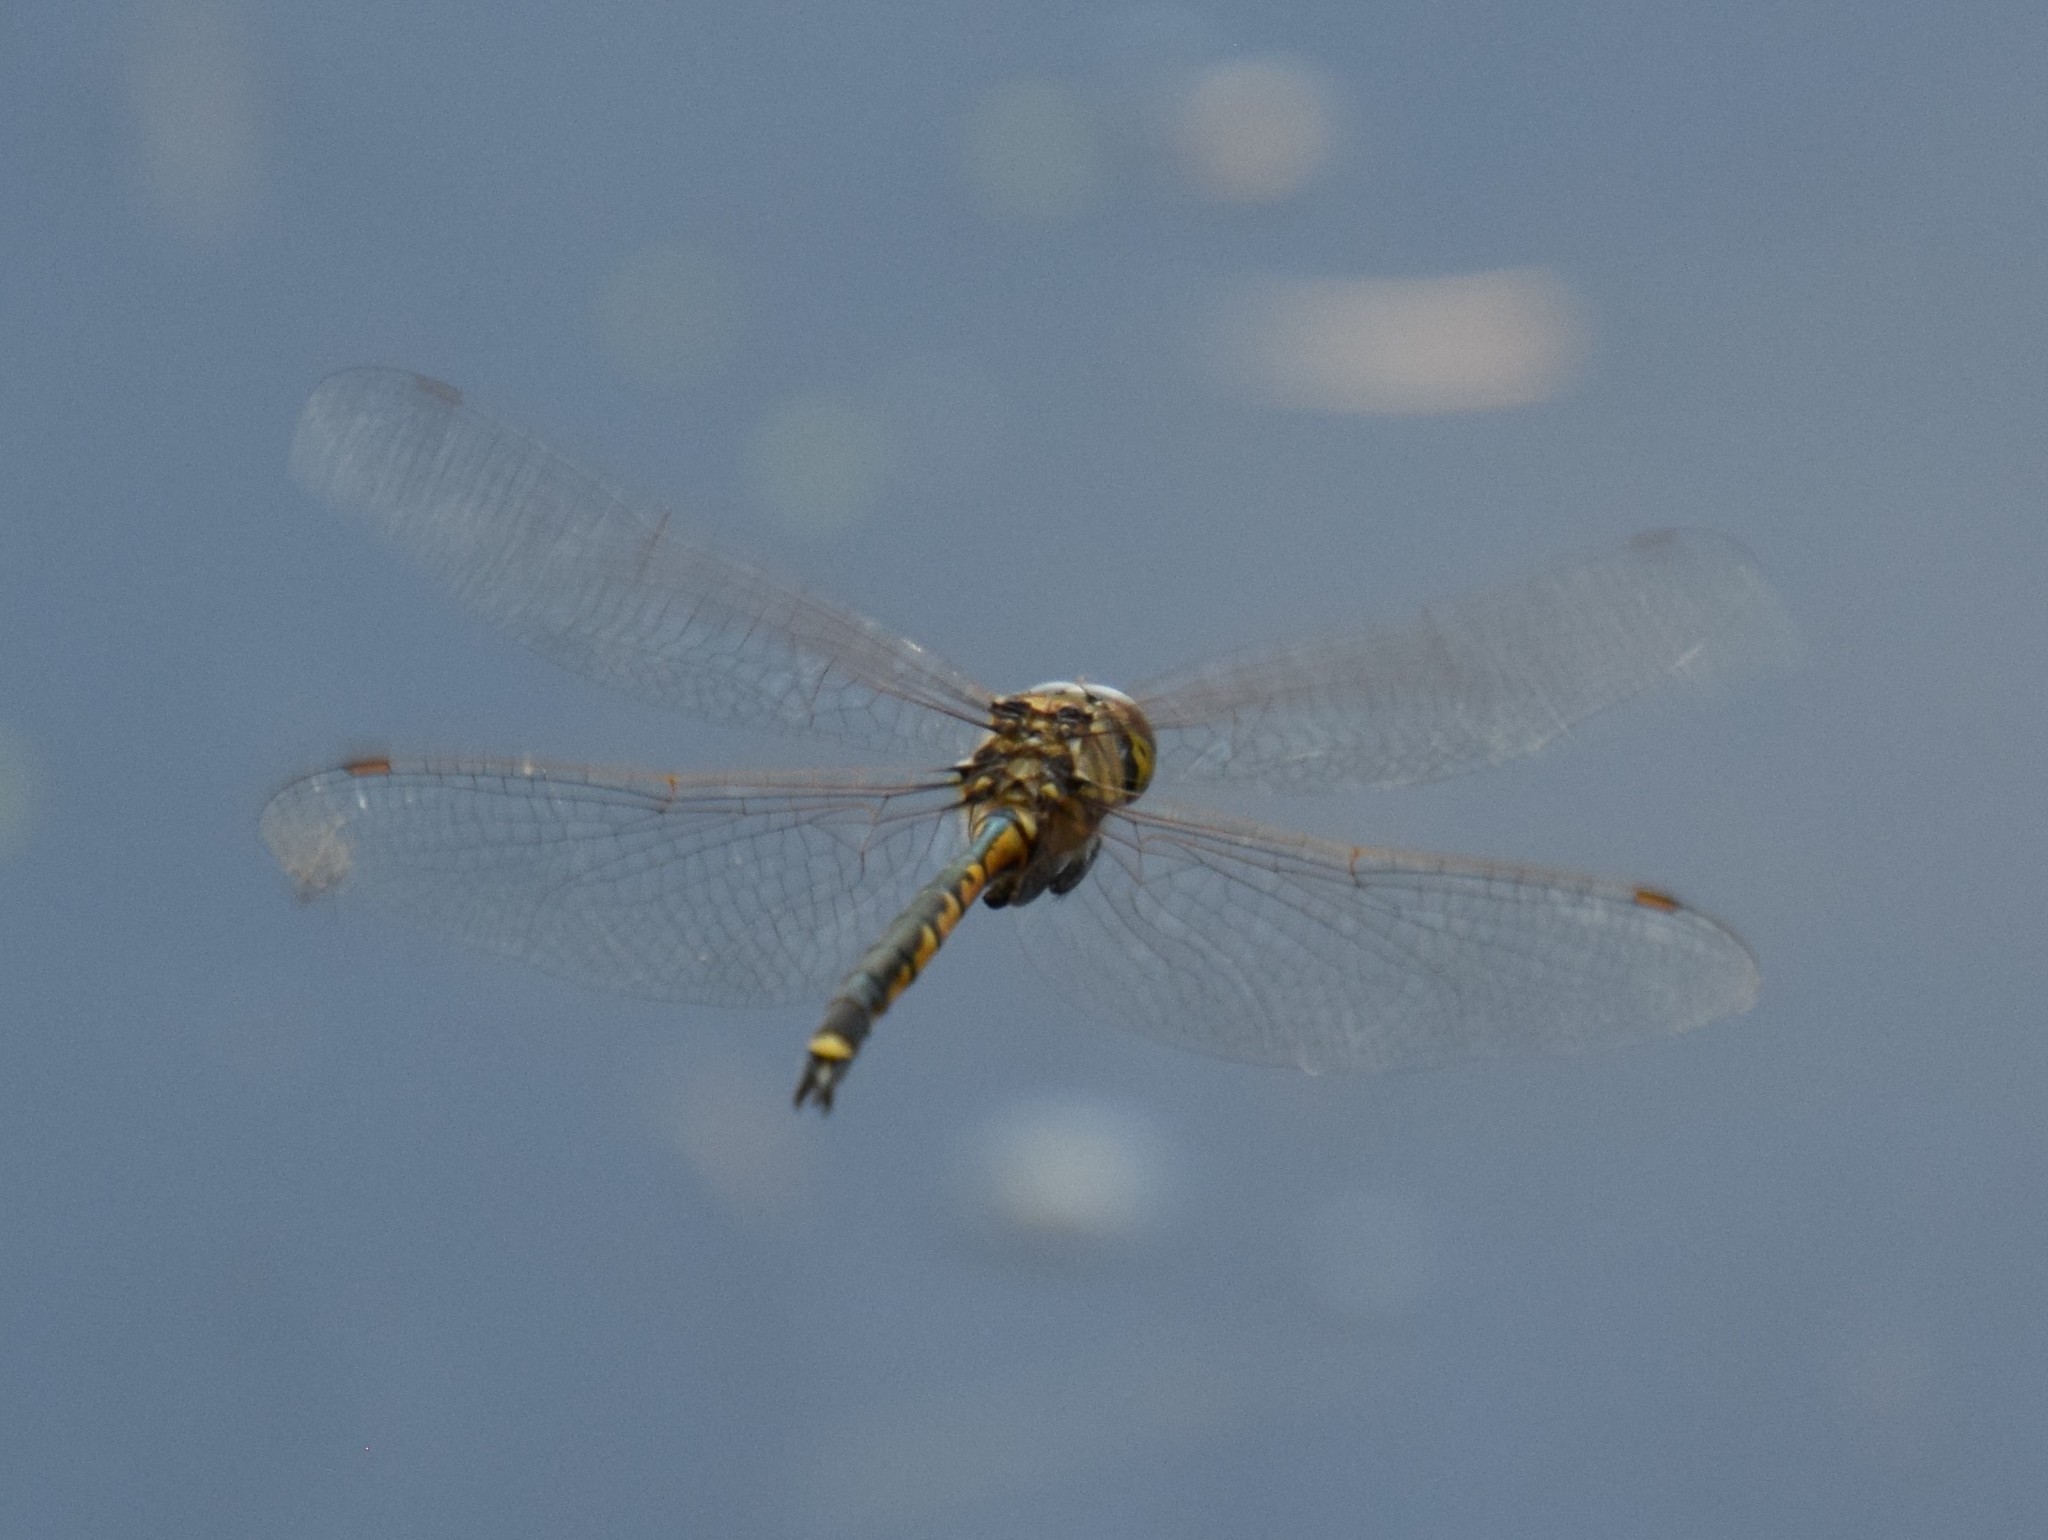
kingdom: Animalia
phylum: Arthropoda
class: Insecta
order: Odonata
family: Corduliidae
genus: Hemicordulia
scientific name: Hemicordulia tau
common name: Tau emerald
